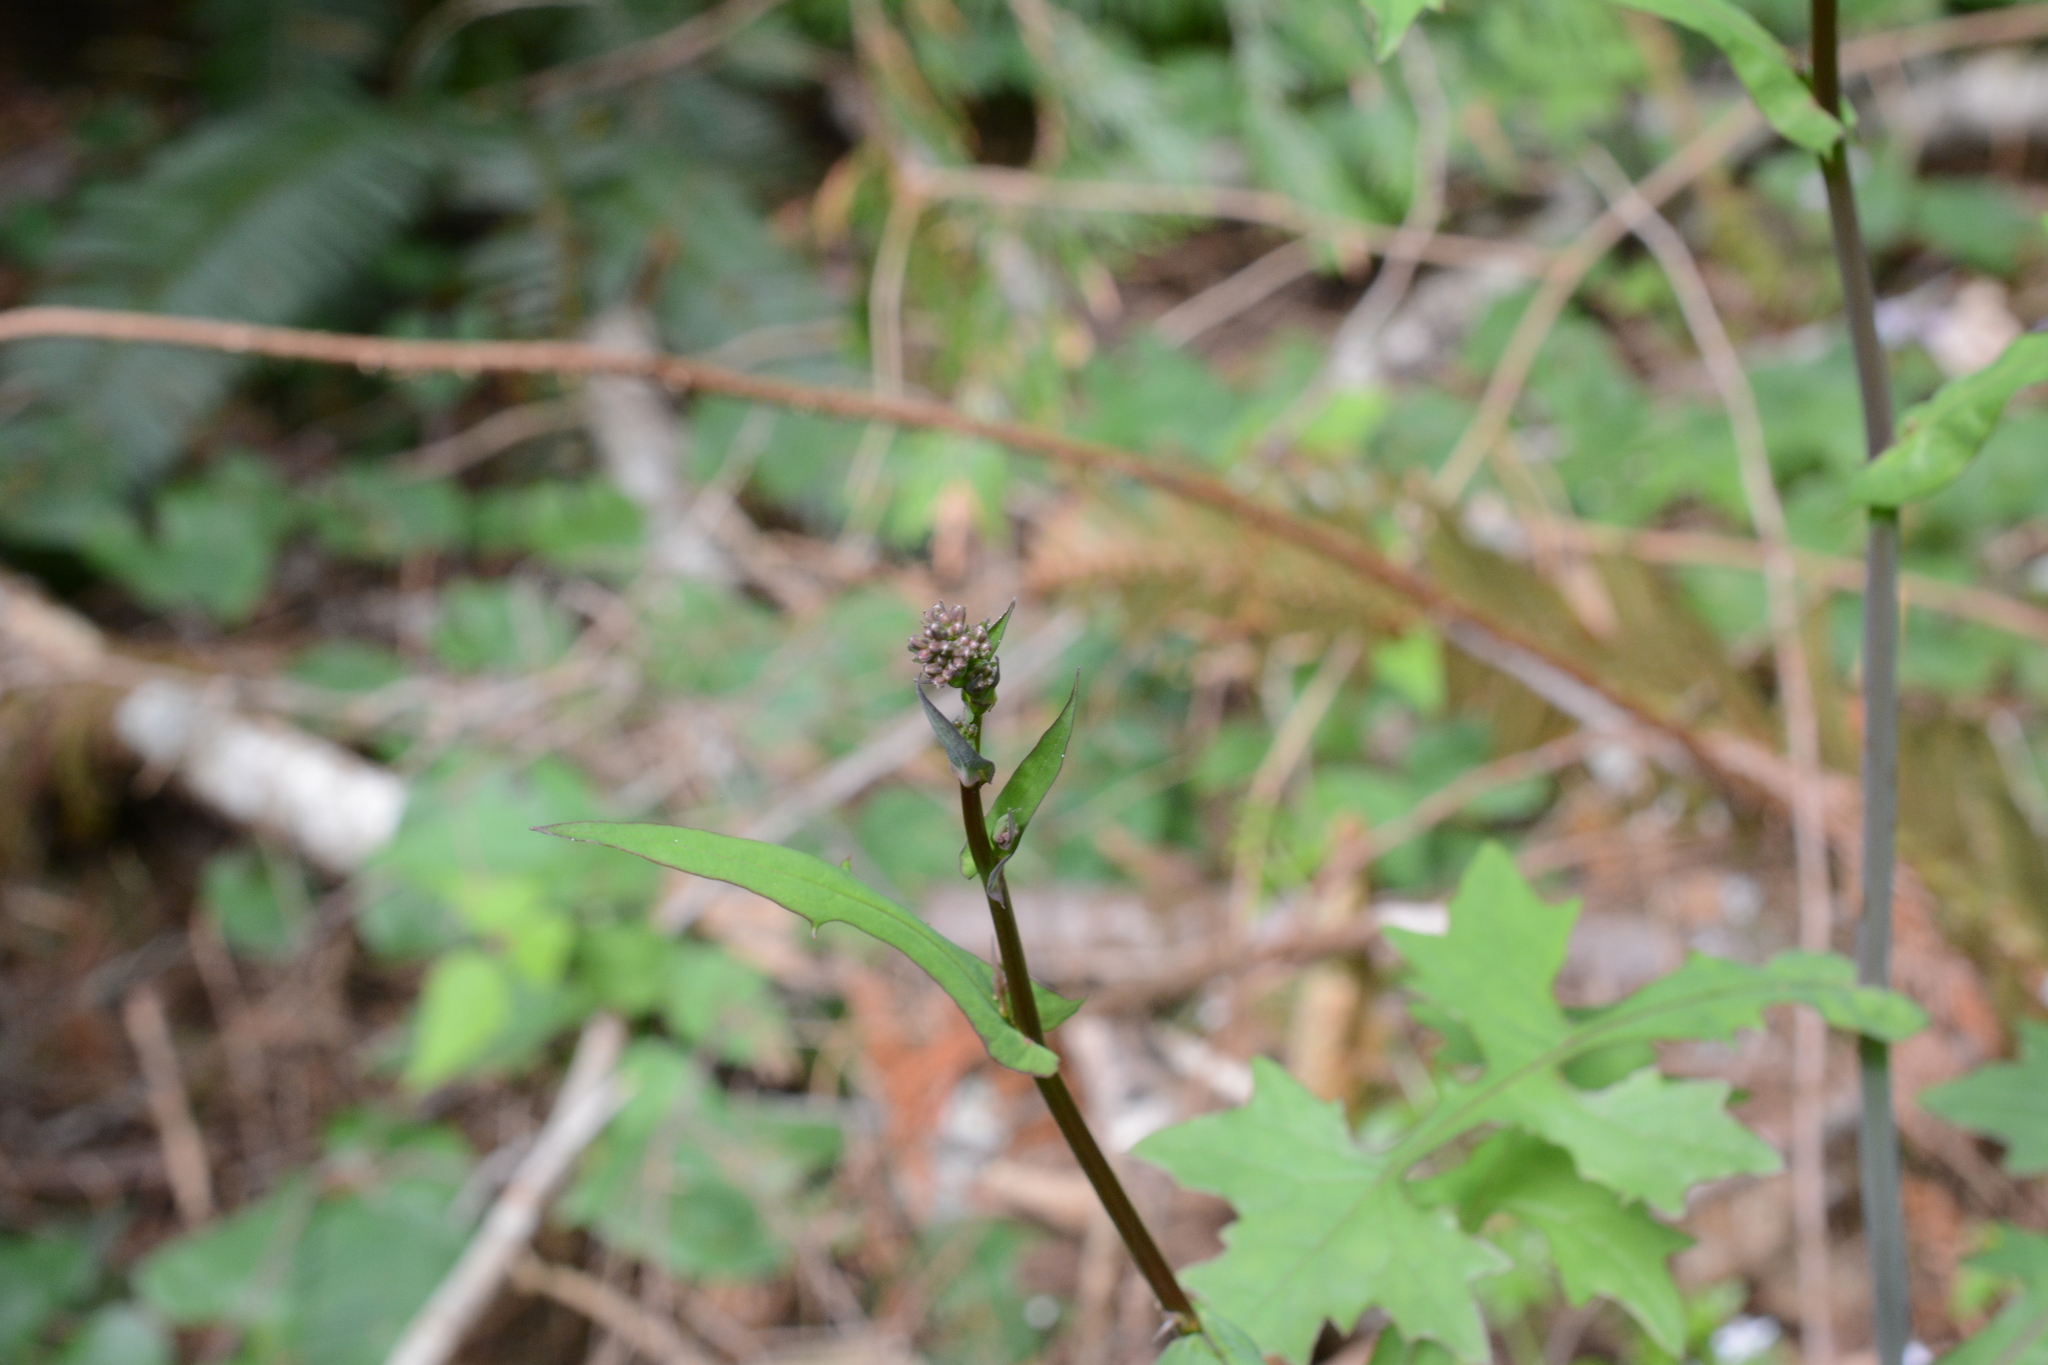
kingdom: Plantae
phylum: Tracheophyta
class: Magnoliopsida
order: Asterales
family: Asteraceae
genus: Mycelis
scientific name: Mycelis muralis
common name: Wall lettuce
